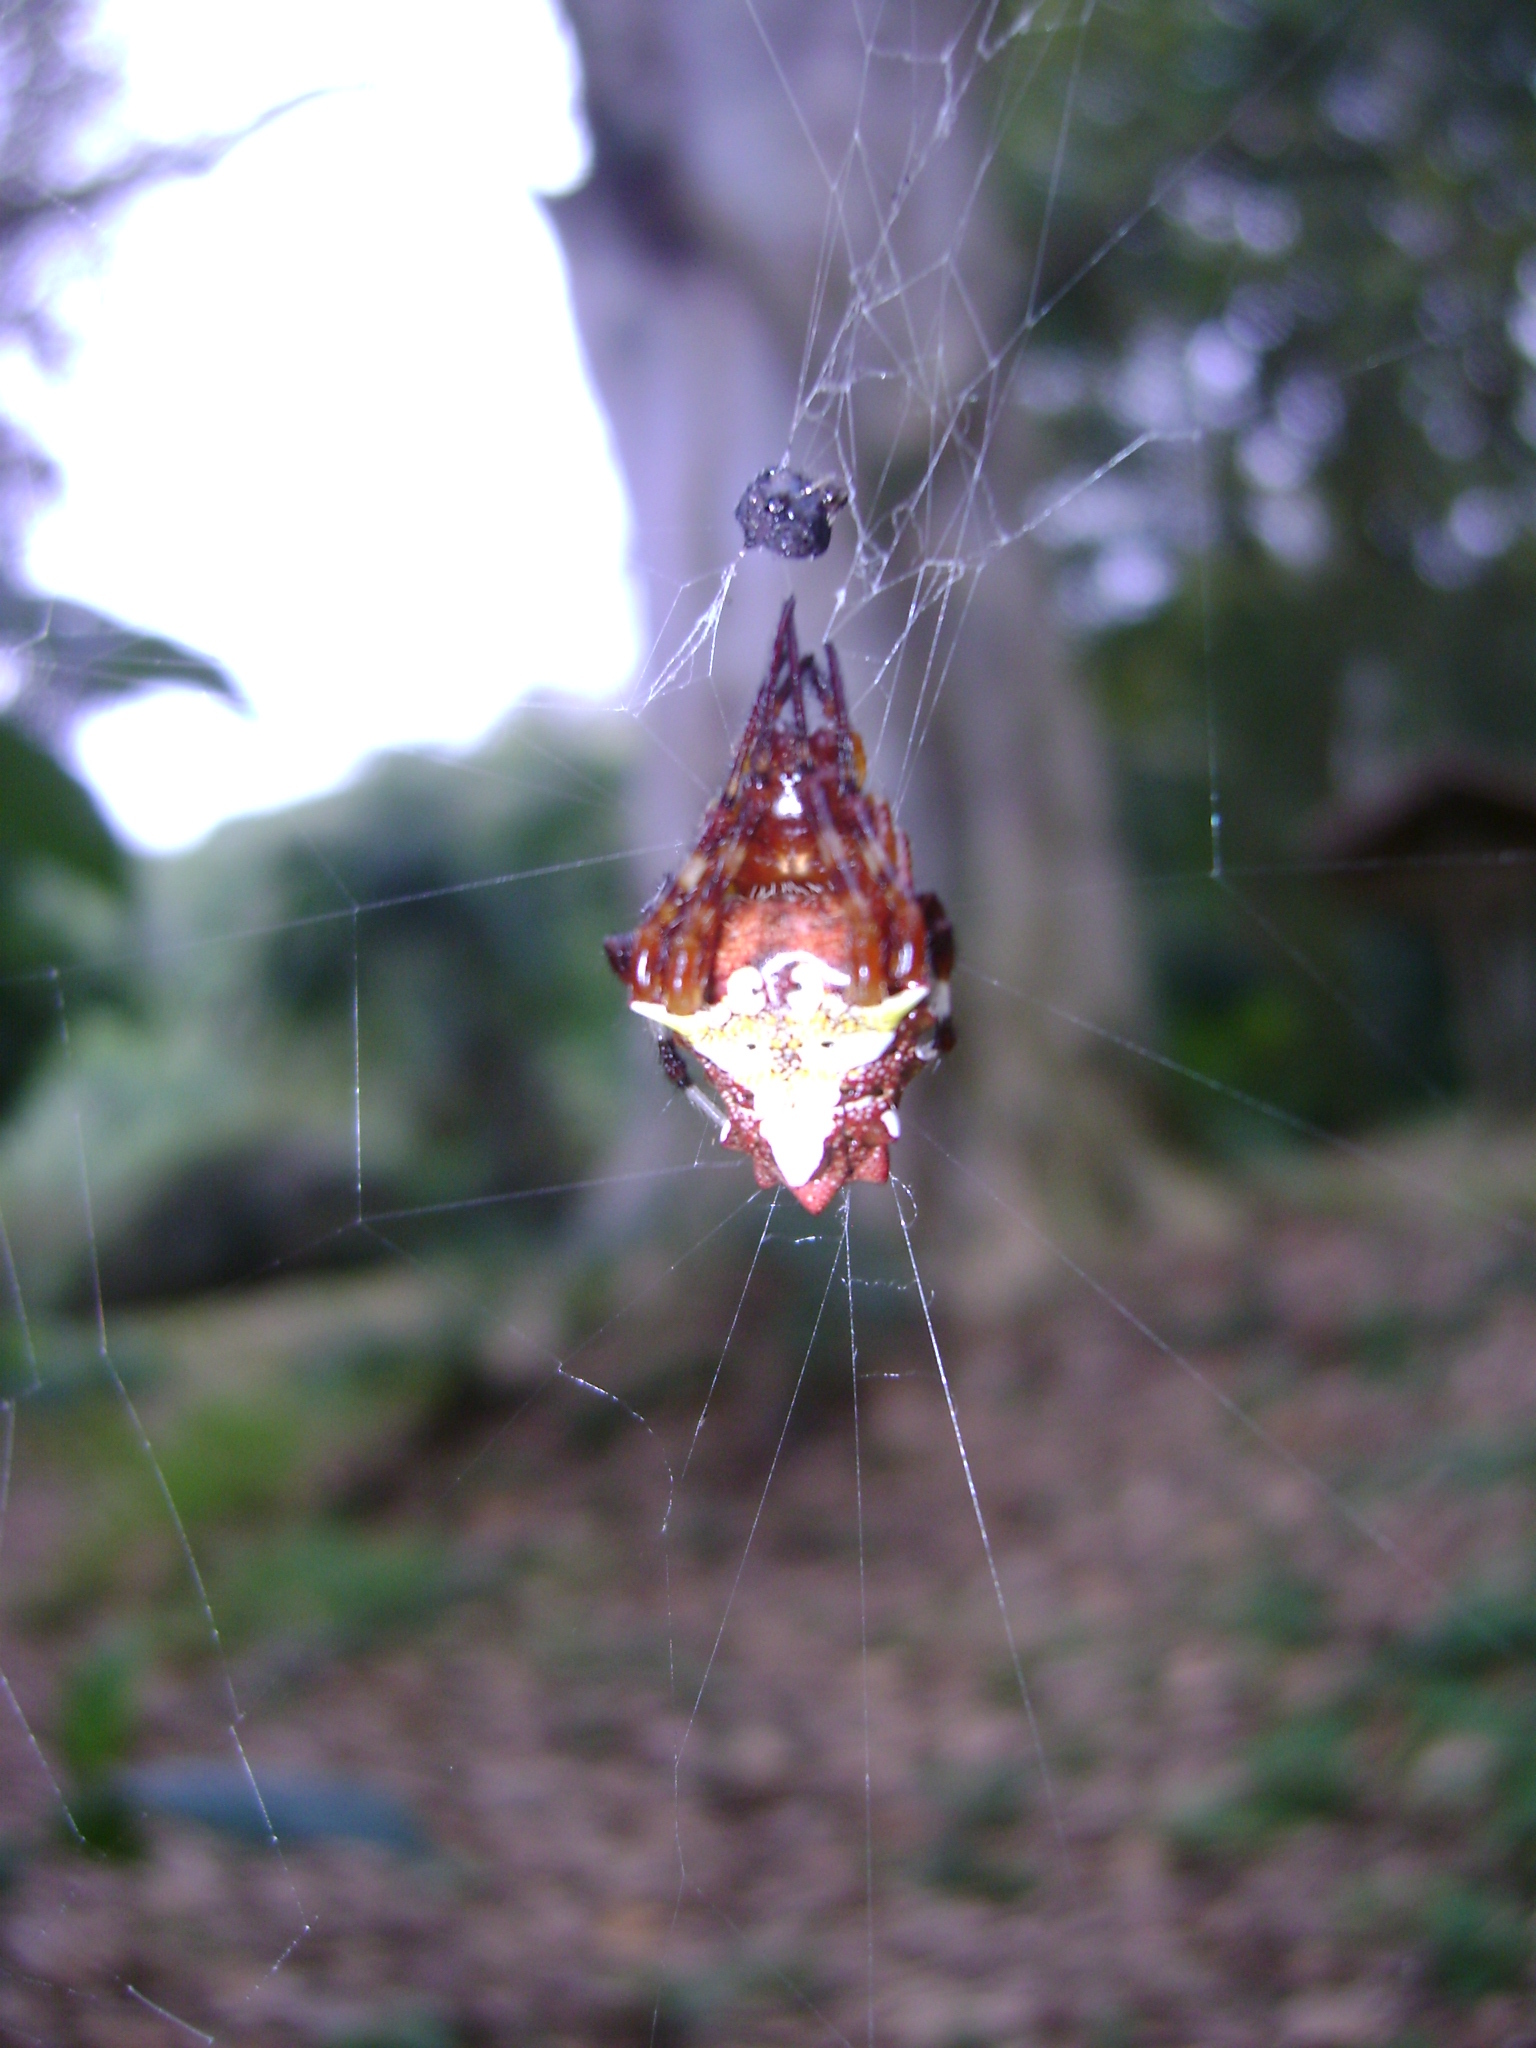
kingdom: Animalia
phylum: Arthropoda
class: Arachnida
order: Araneae
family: Araneidae
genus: Verrucosa
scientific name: Verrucosa arenata
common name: Orb weavers
